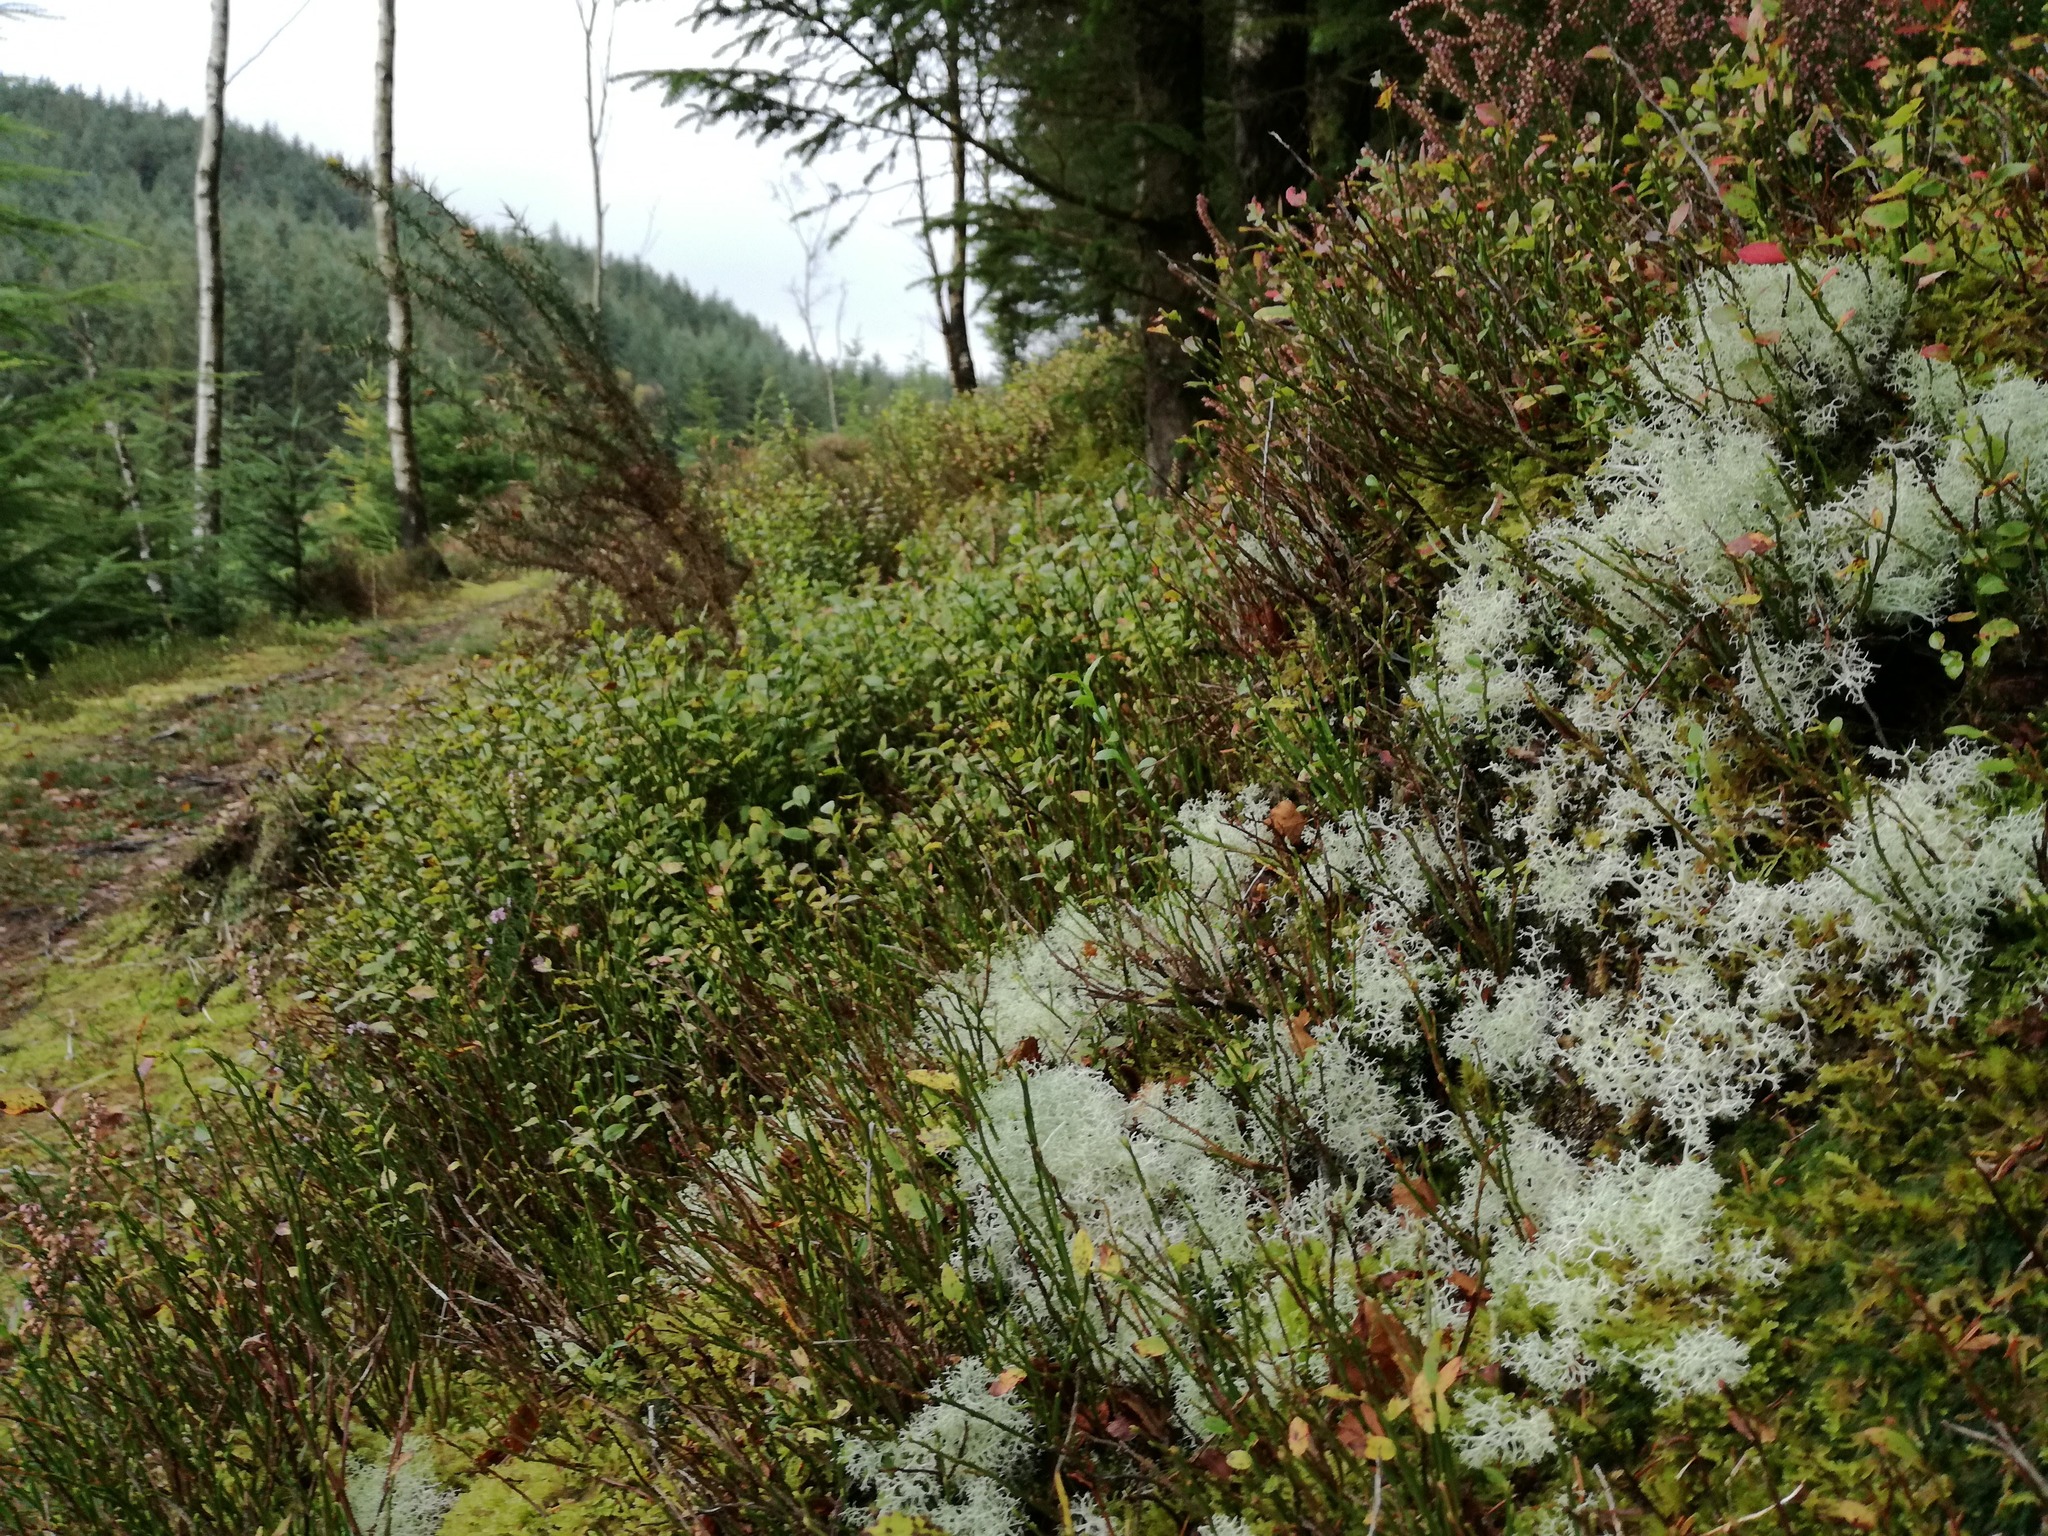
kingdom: Fungi
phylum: Ascomycota
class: Lecanoromycetes
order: Lecanorales
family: Cladoniaceae
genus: Cladonia
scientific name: Cladonia portentosa
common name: Reindeer lichen
